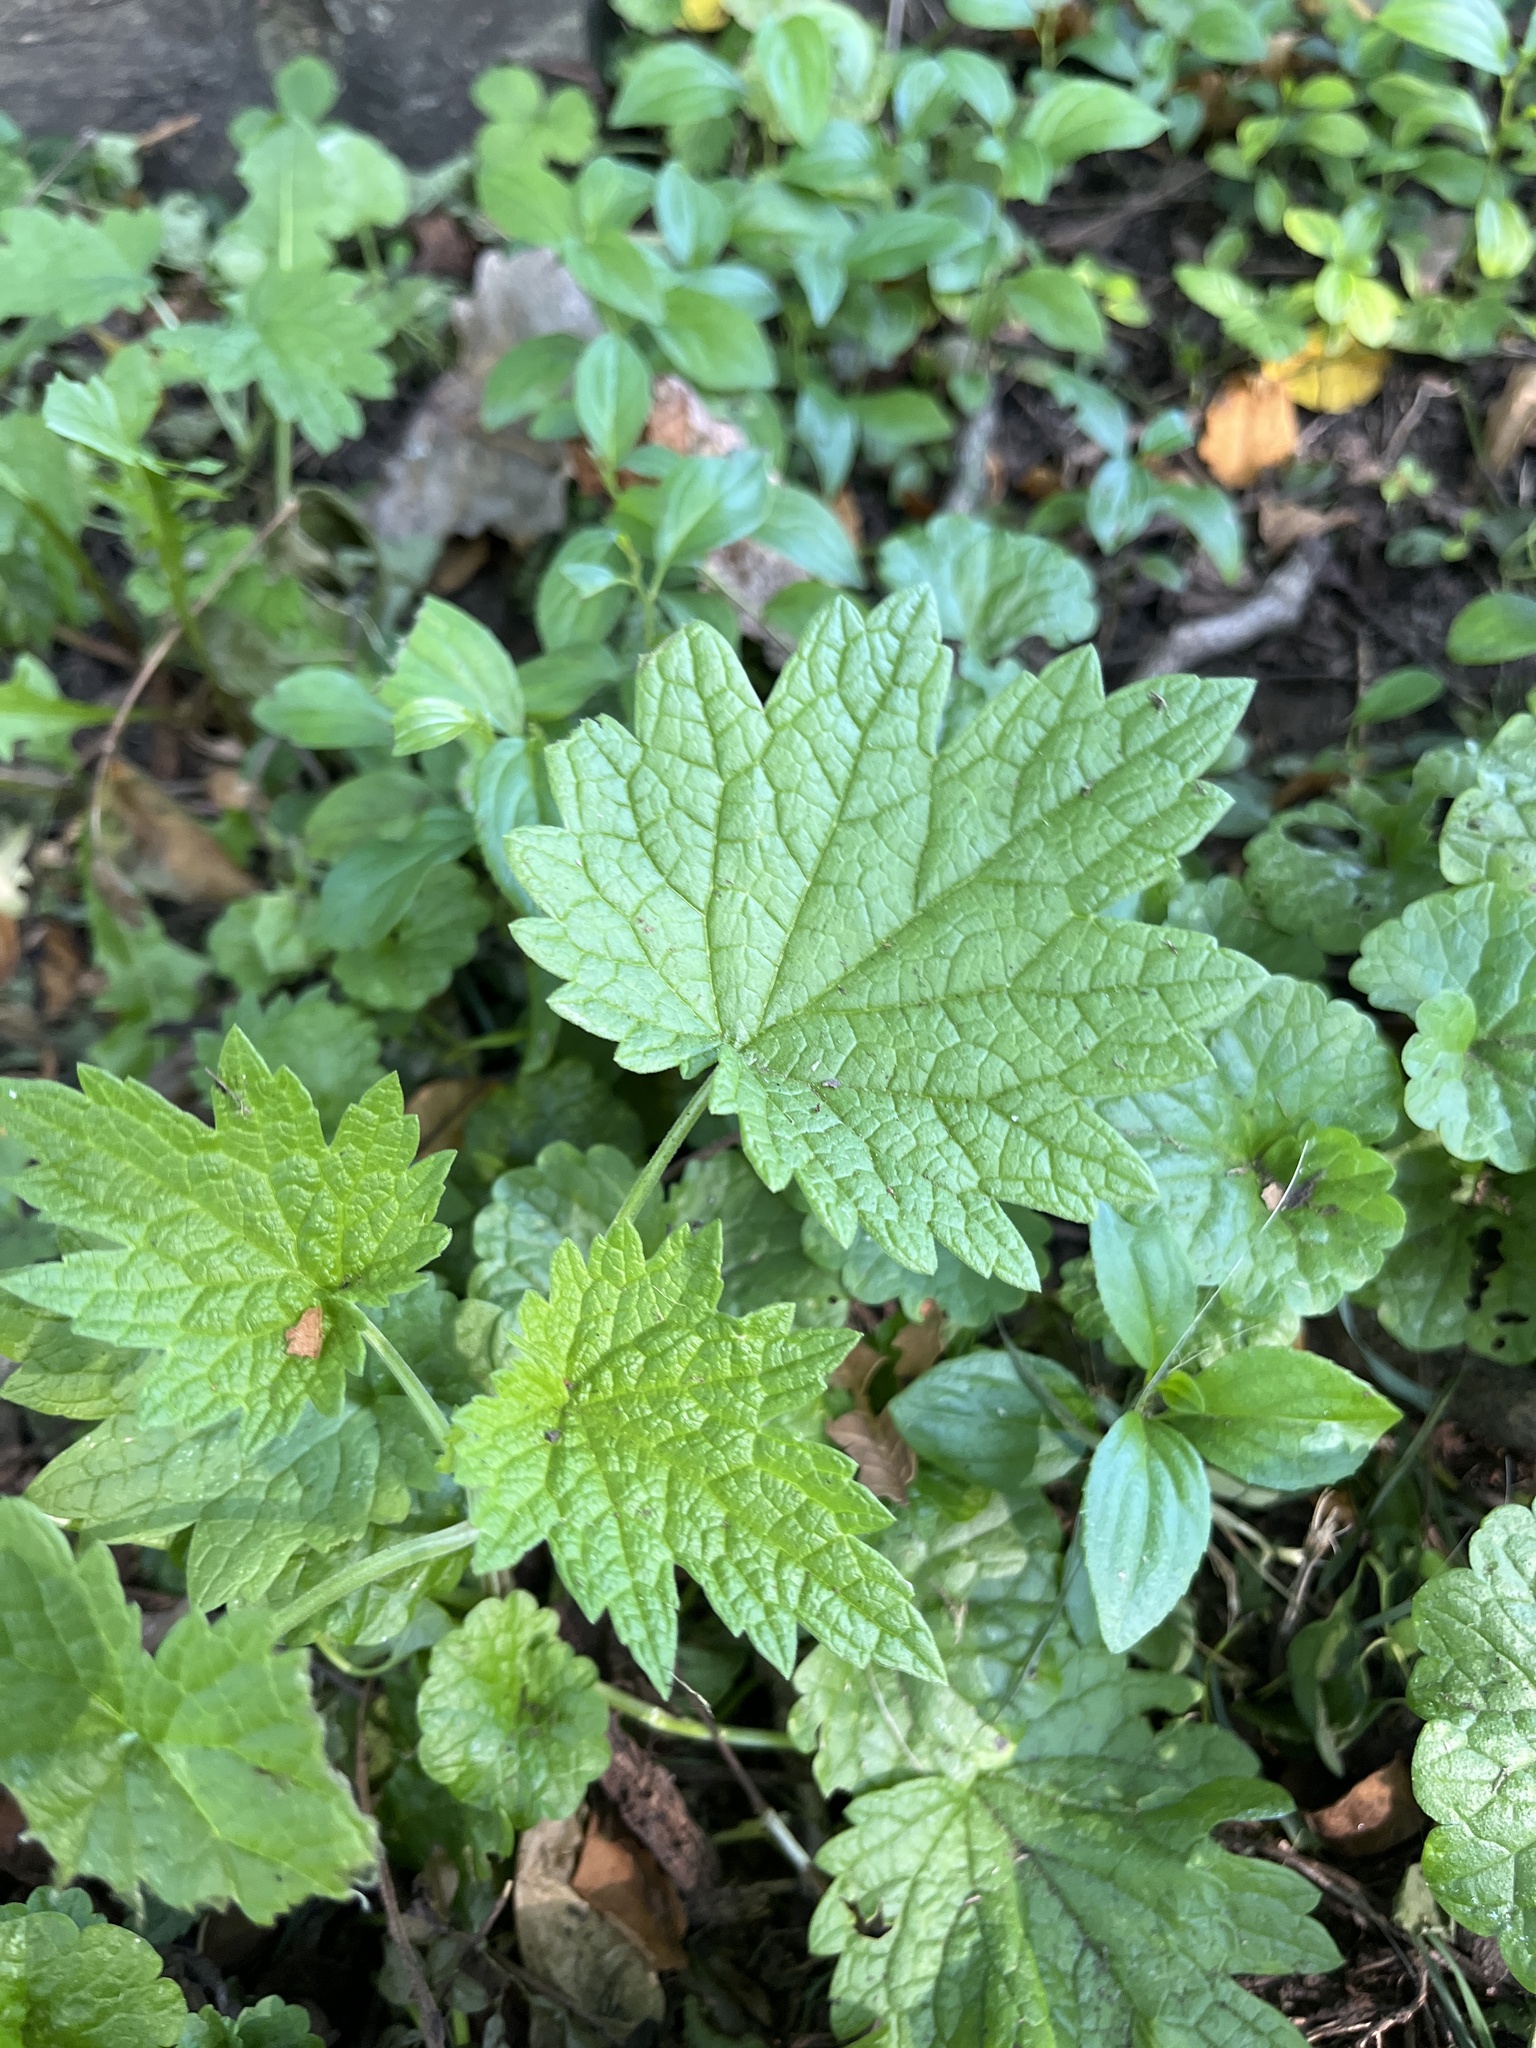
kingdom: Plantae
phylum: Tracheophyta
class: Magnoliopsida
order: Lamiales
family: Lamiaceae
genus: Leonurus
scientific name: Leonurus cardiaca
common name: Motherwort
